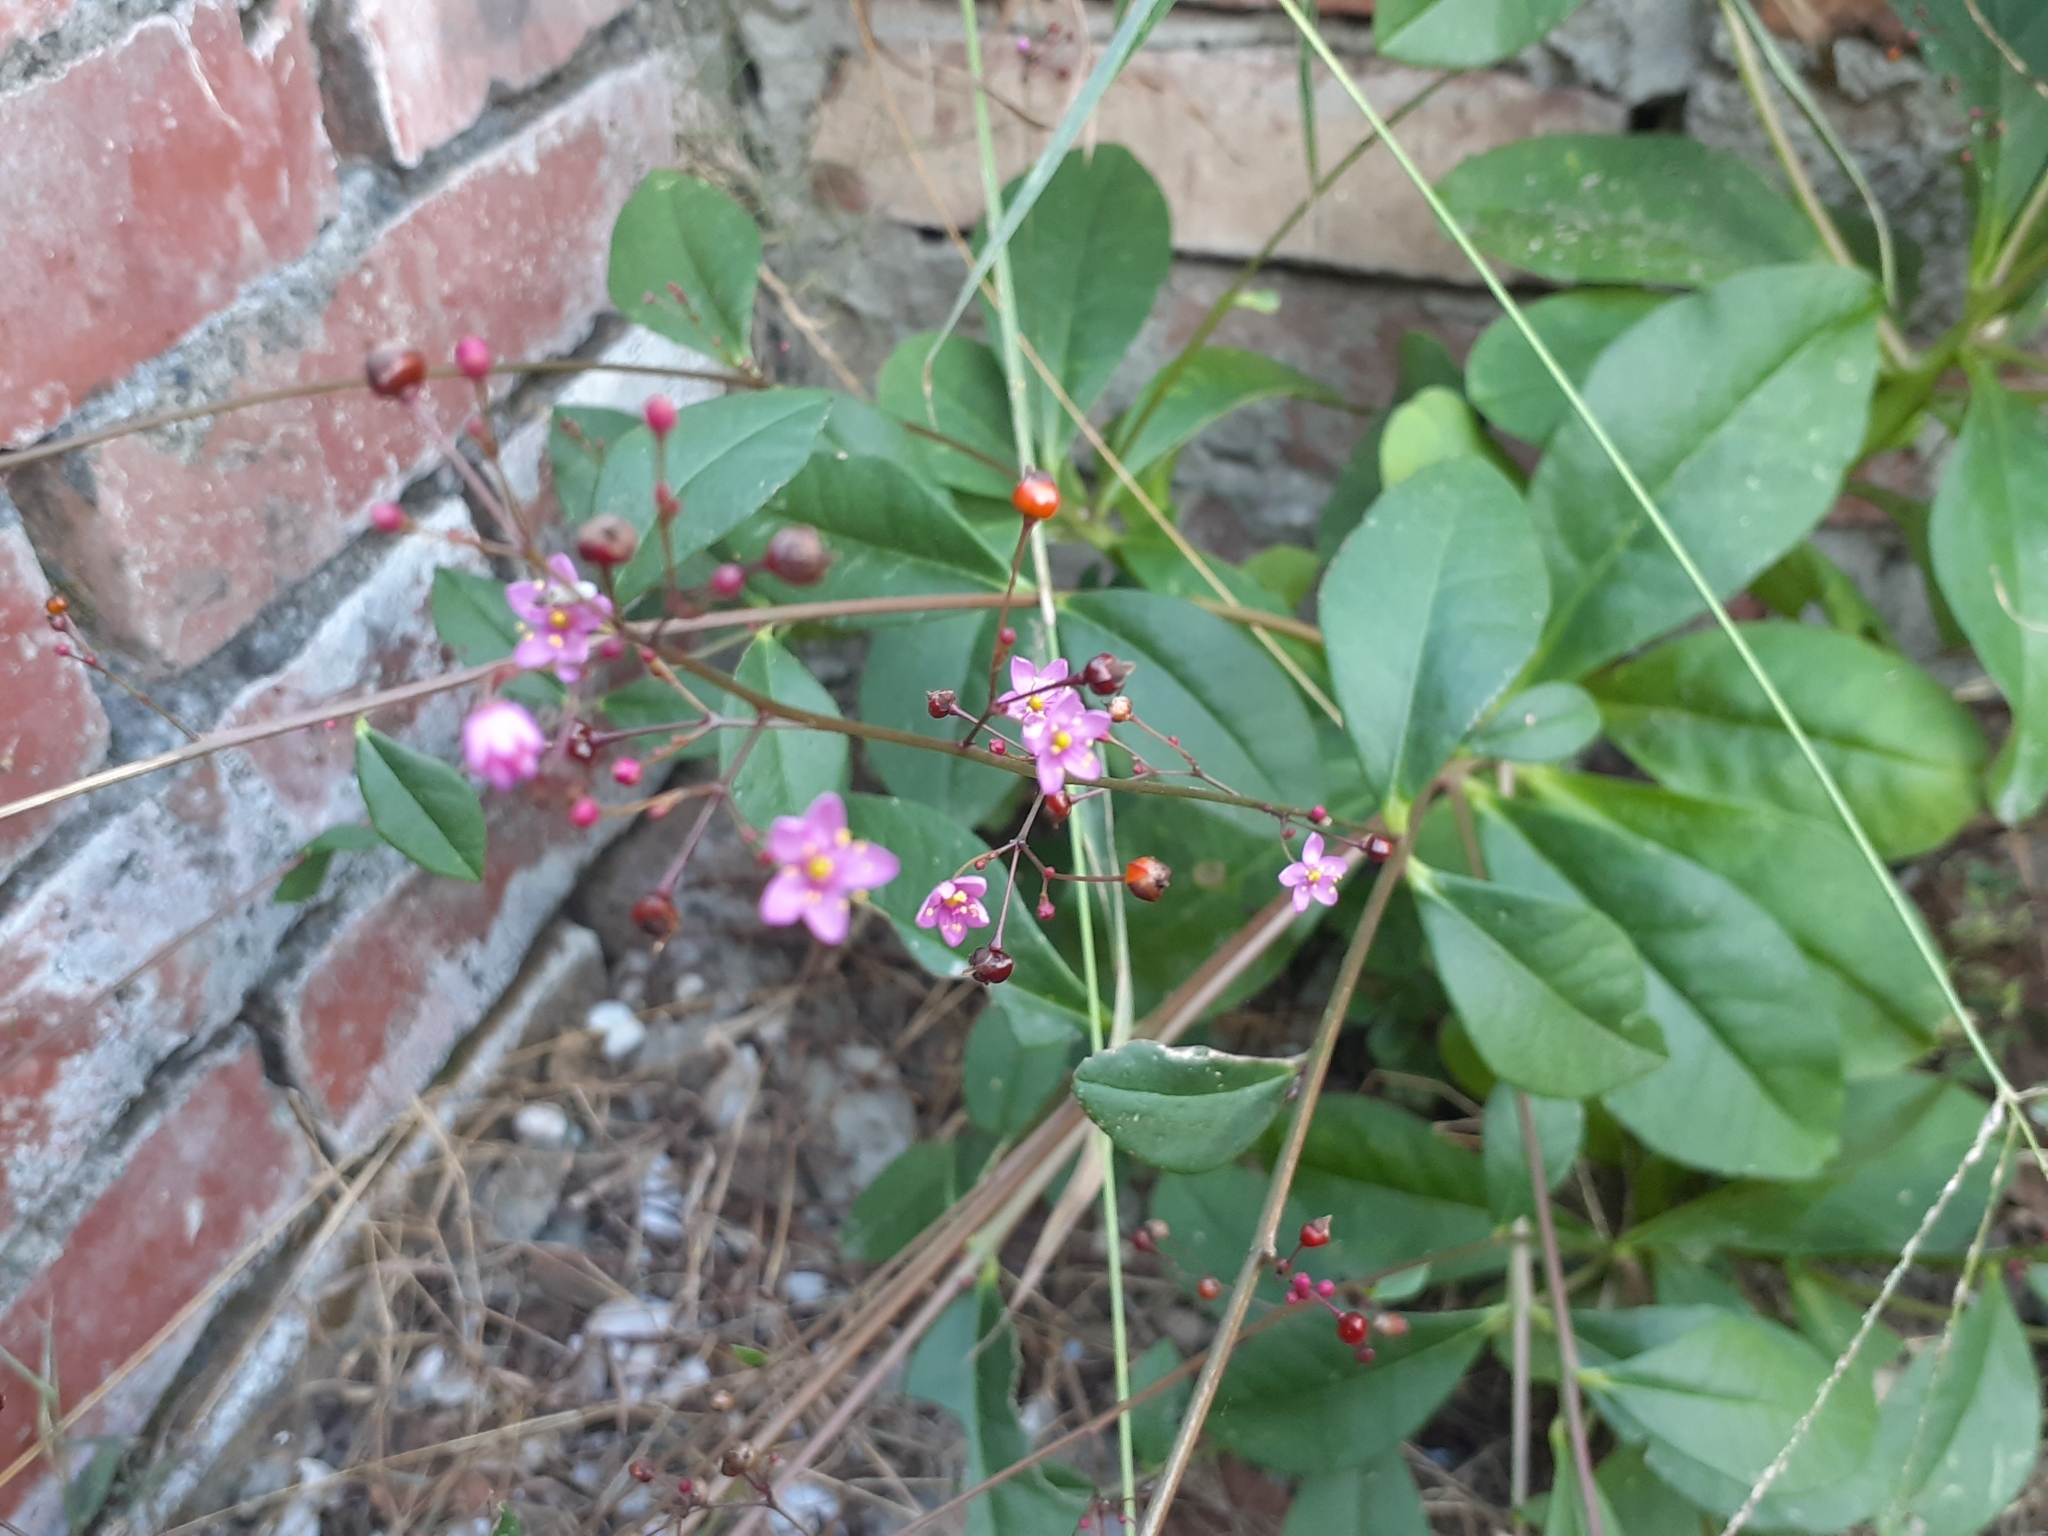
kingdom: Plantae
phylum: Tracheophyta
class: Magnoliopsida
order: Caryophyllales
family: Talinaceae
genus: Talinum
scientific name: Talinum paniculatum
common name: Jewels of opar
